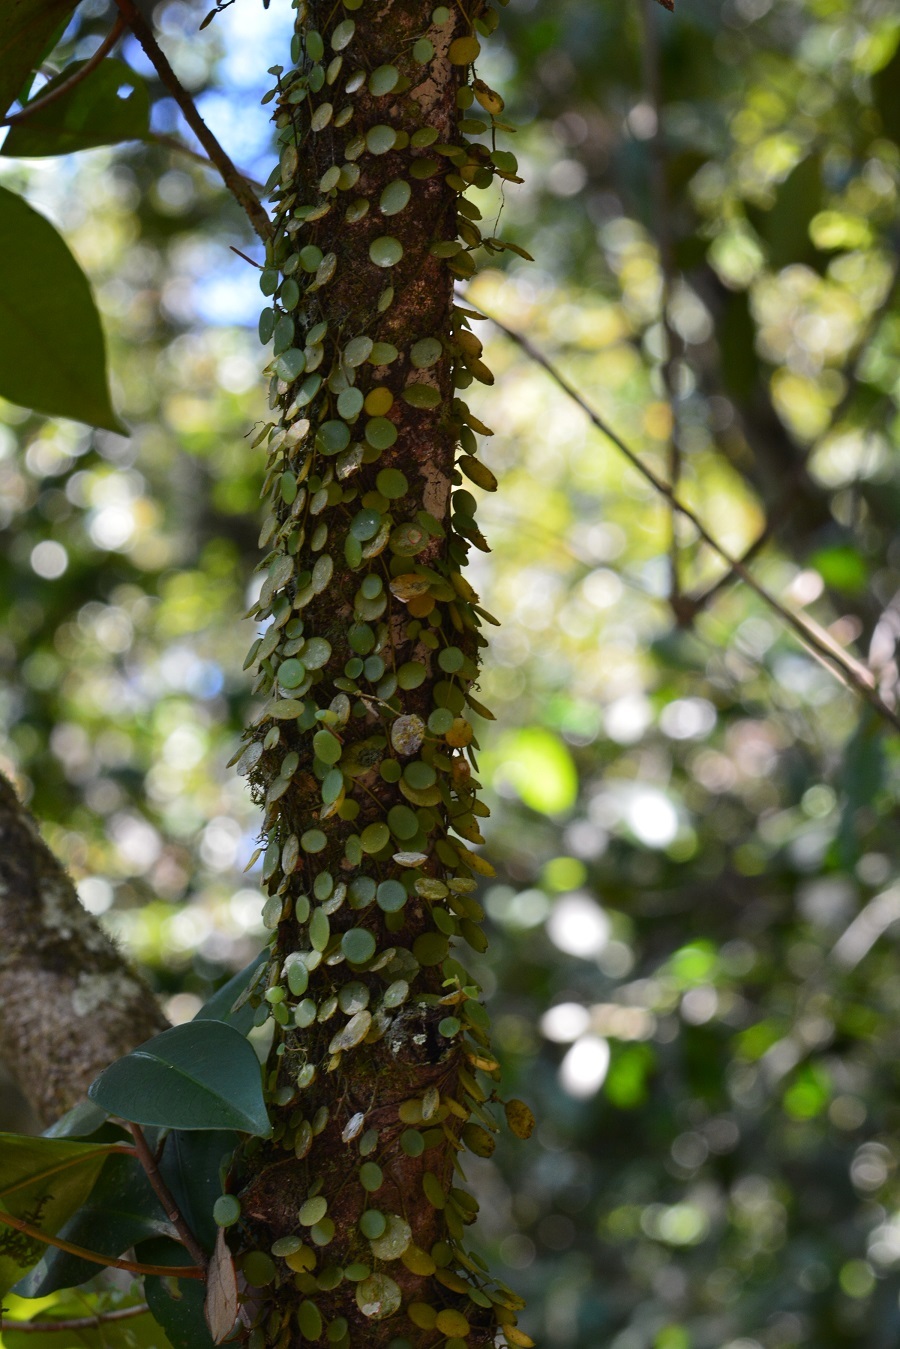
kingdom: Plantae
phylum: Tracheophyta
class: Magnoliopsida
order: Piperales
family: Piperaceae
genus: Peperomia
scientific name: Peperomia rotundifolia
